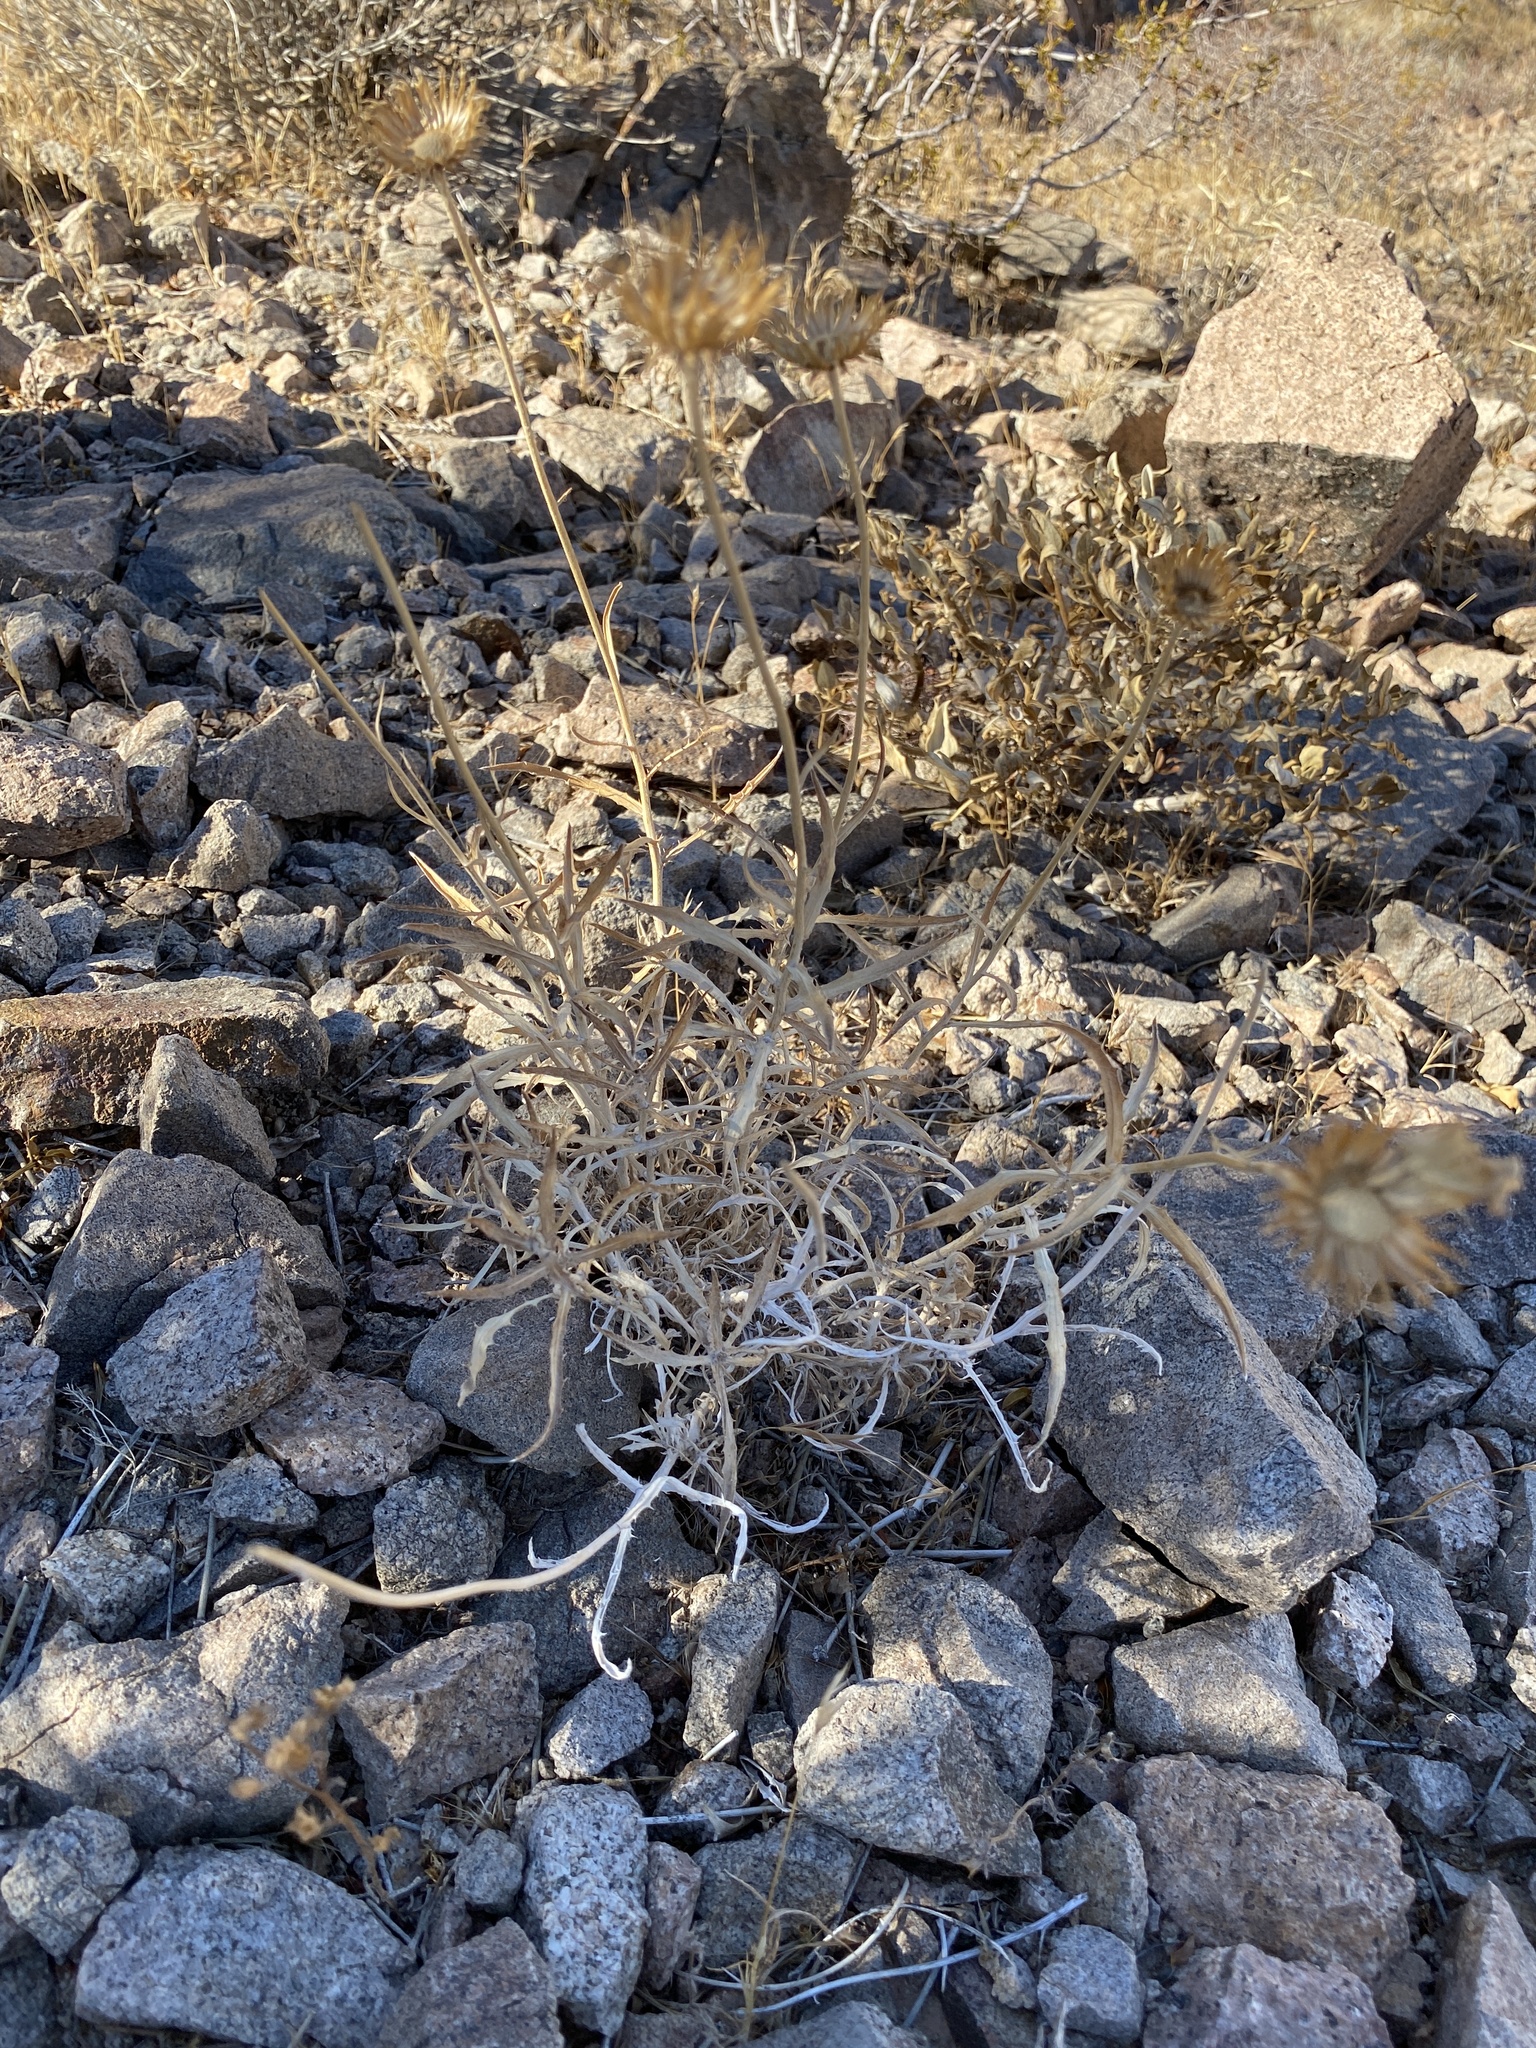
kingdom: Plantae
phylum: Tracheophyta
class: Magnoliopsida
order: Asterales
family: Asteraceae
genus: Xylorhiza
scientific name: Xylorhiza tortifolia
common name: Hurt-leaf woody-aster
